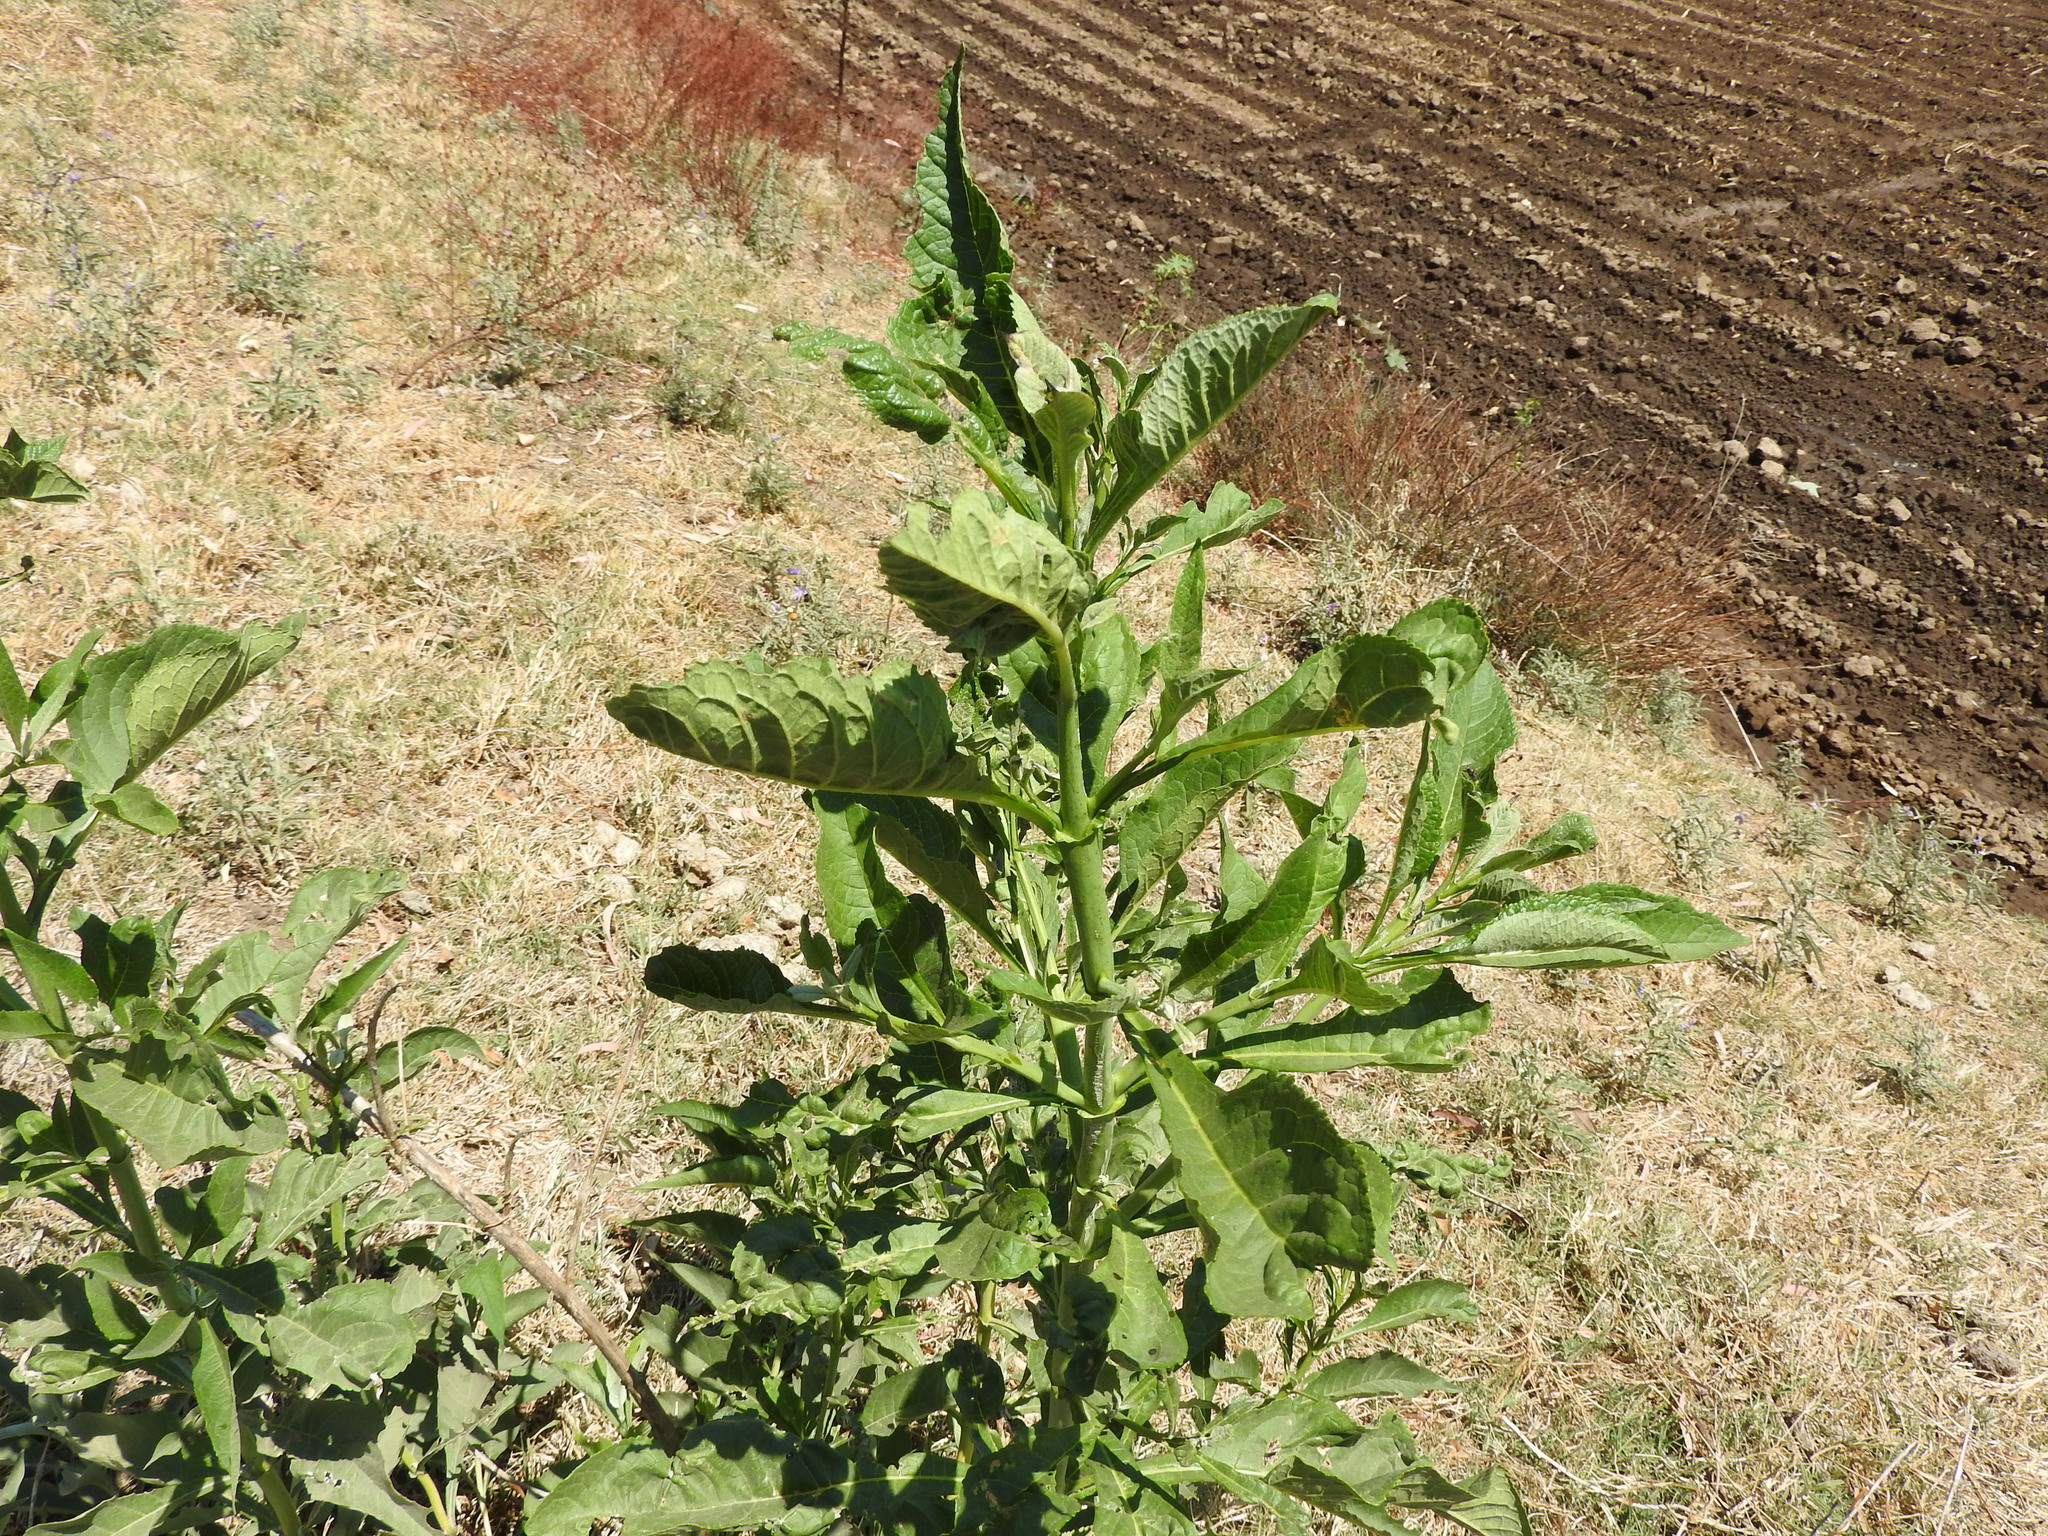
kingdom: Plantae
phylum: Tracheophyta
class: Magnoliopsida
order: Caryophyllales
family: Phytolaccaceae
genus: Phytolacca
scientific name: Phytolacca
